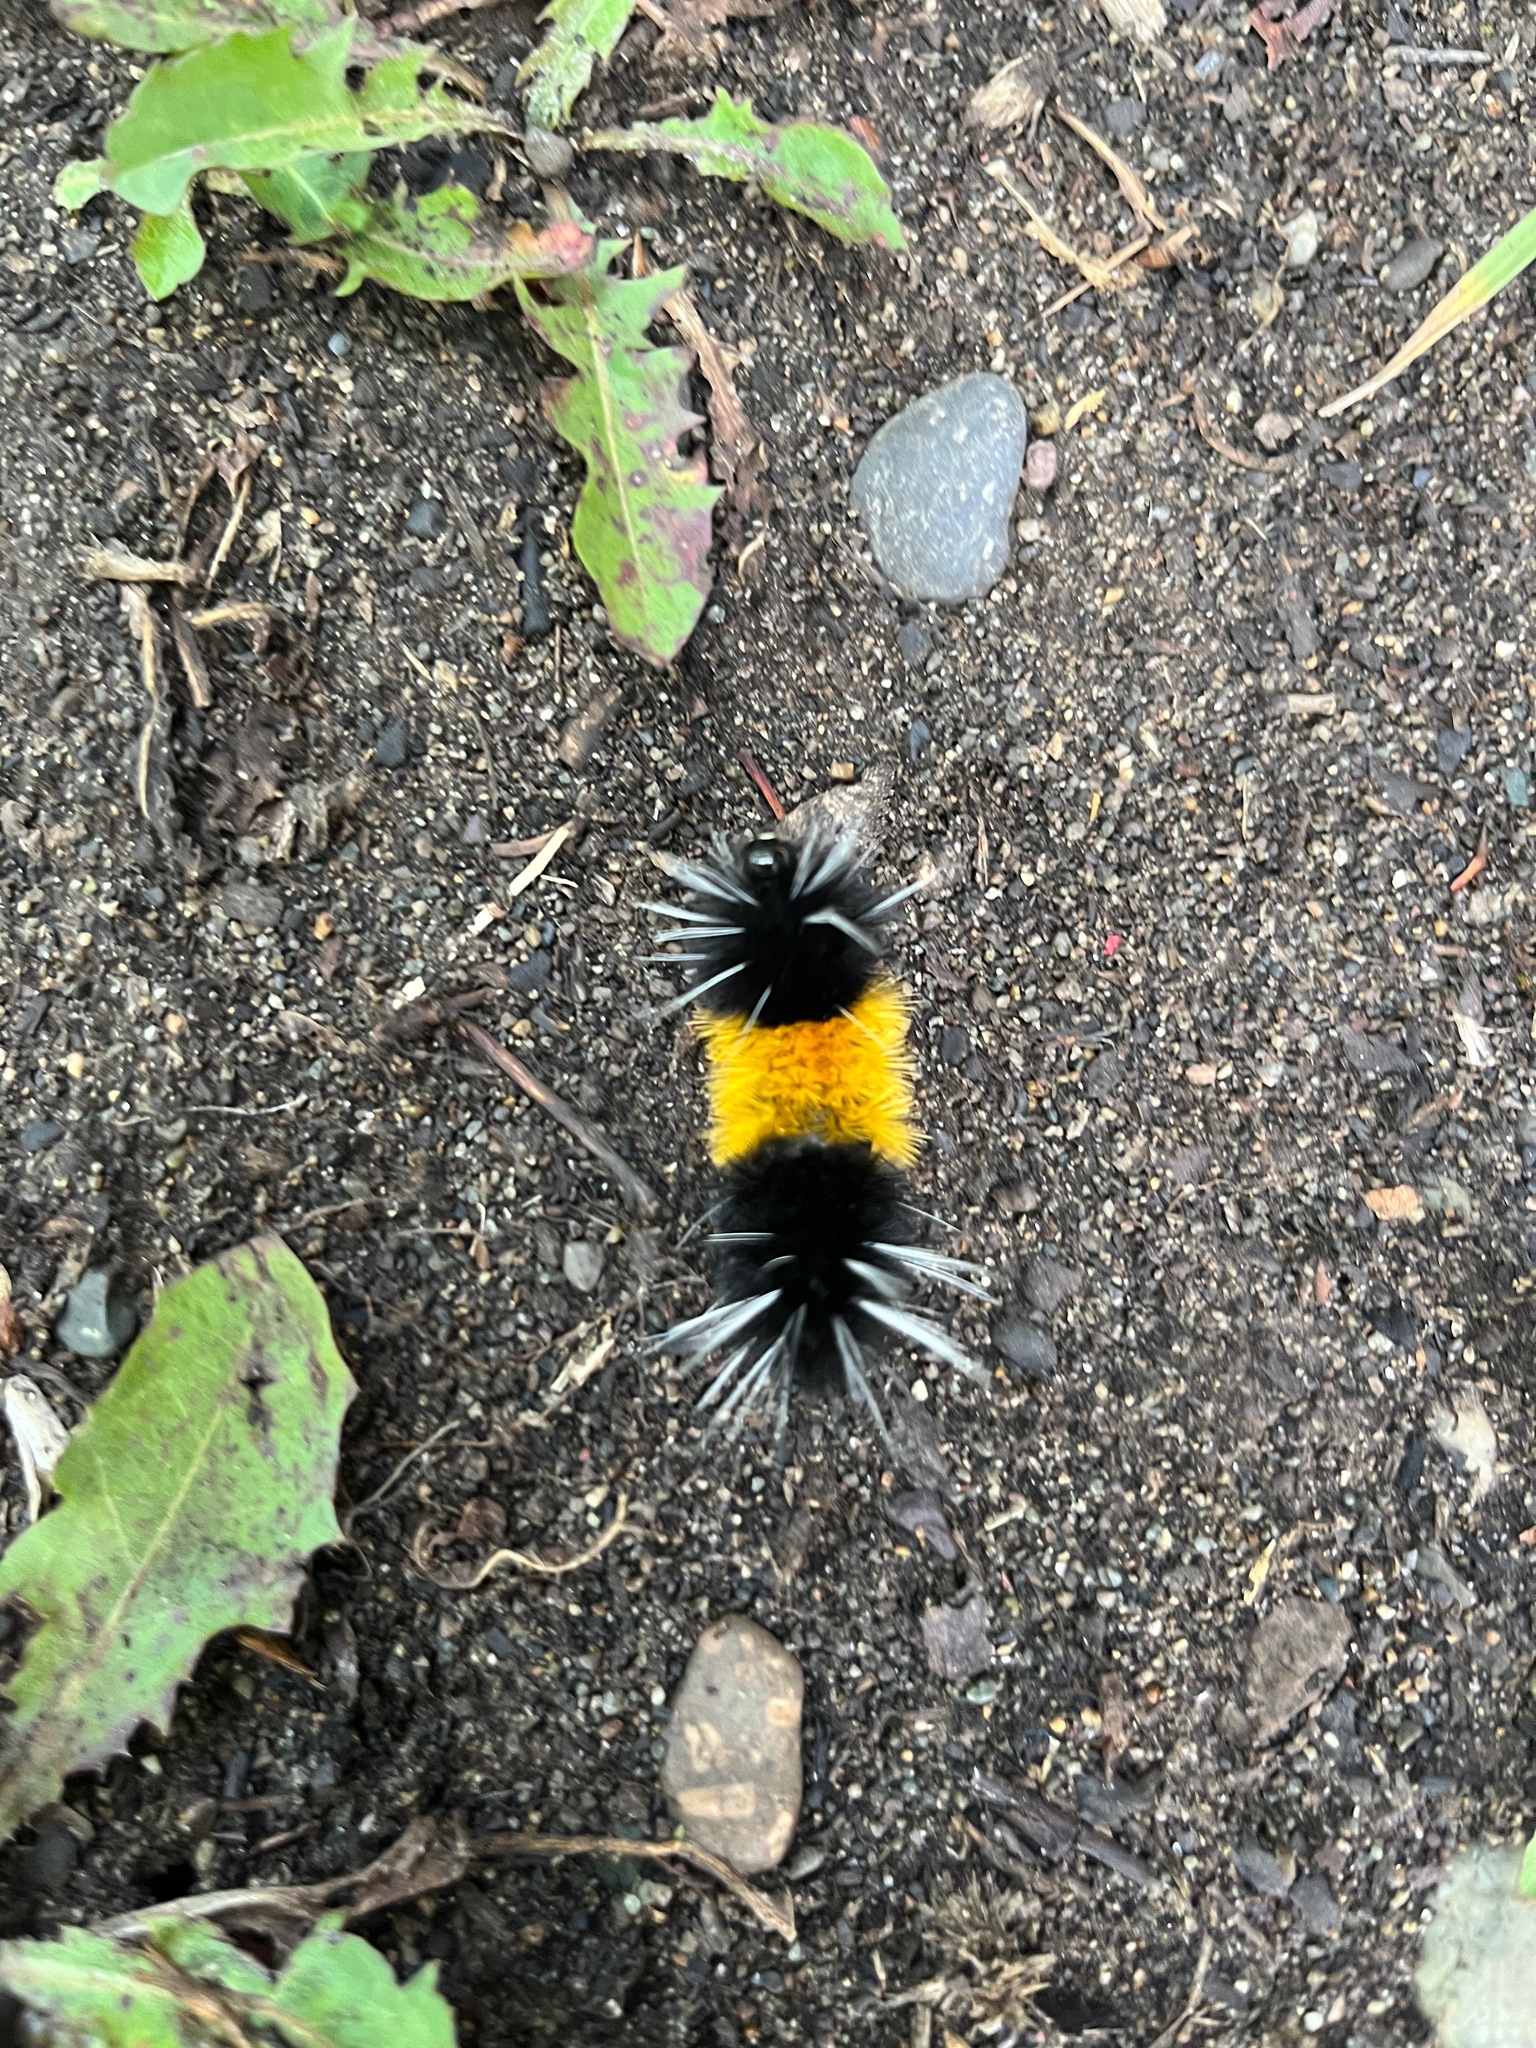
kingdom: Animalia
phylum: Arthropoda
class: Insecta
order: Lepidoptera
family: Erebidae
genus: Lophocampa
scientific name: Lophocampa maculata
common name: Spotted tussock moth
